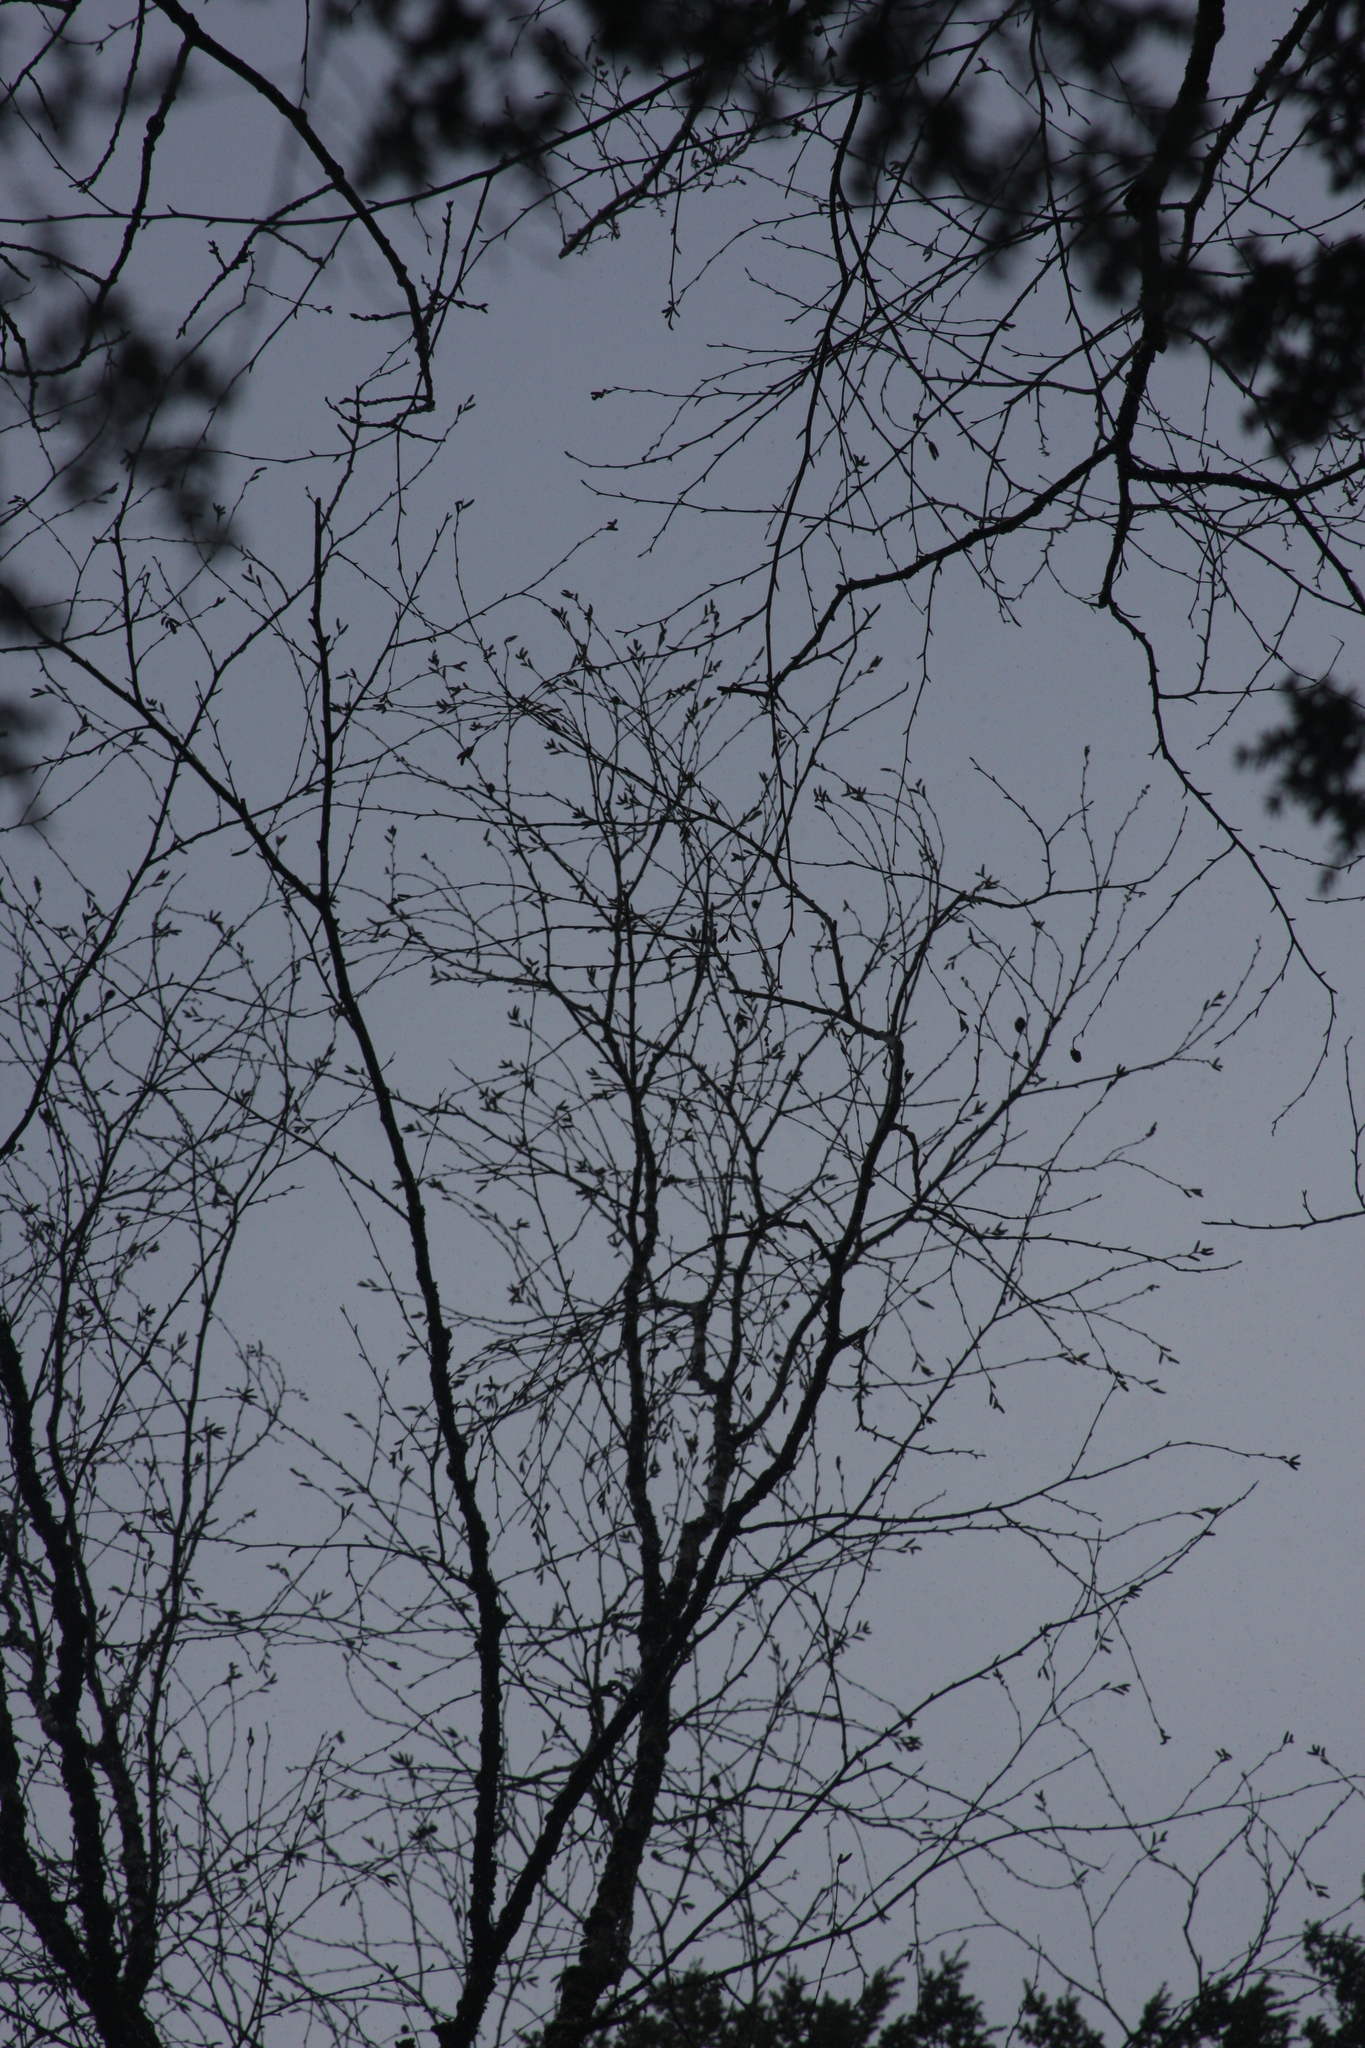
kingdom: Plantae
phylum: Tracheophyta
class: Magnoliopsida
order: Fagales
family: Betulaceae
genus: Betula
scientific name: Betula alleghaniensis
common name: Yellow birch
